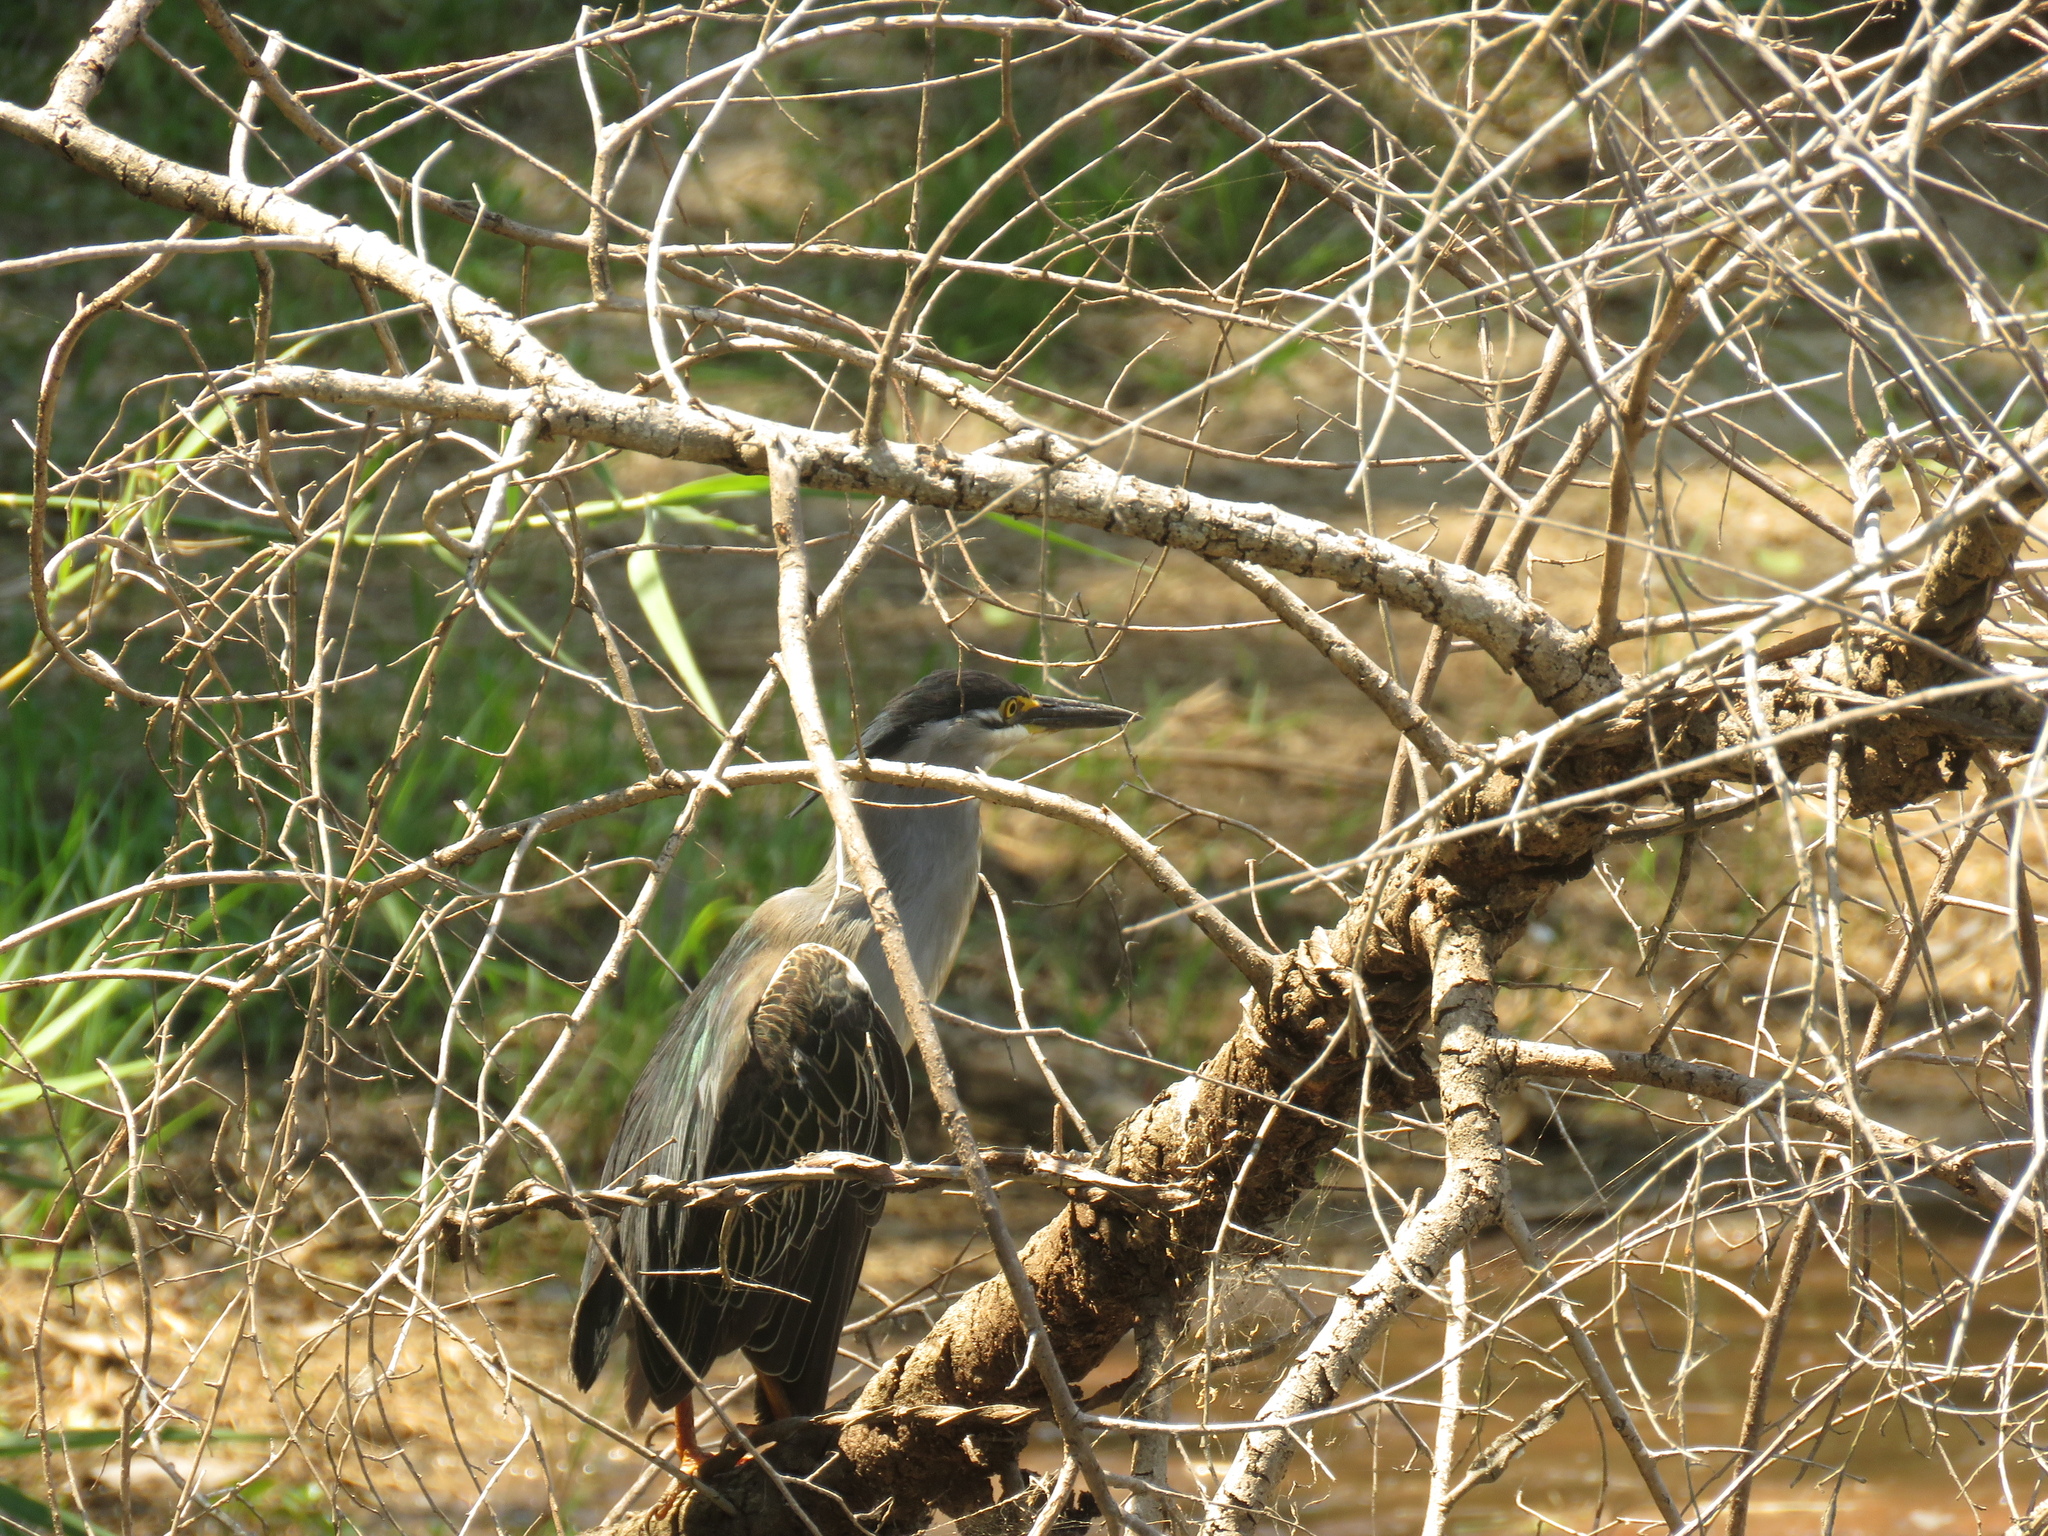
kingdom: Animalia
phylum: Chordata
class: Aves
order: Pelecaniformes
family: Ardeidae
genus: Butorides
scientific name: Butorides striata
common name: Striated heron
